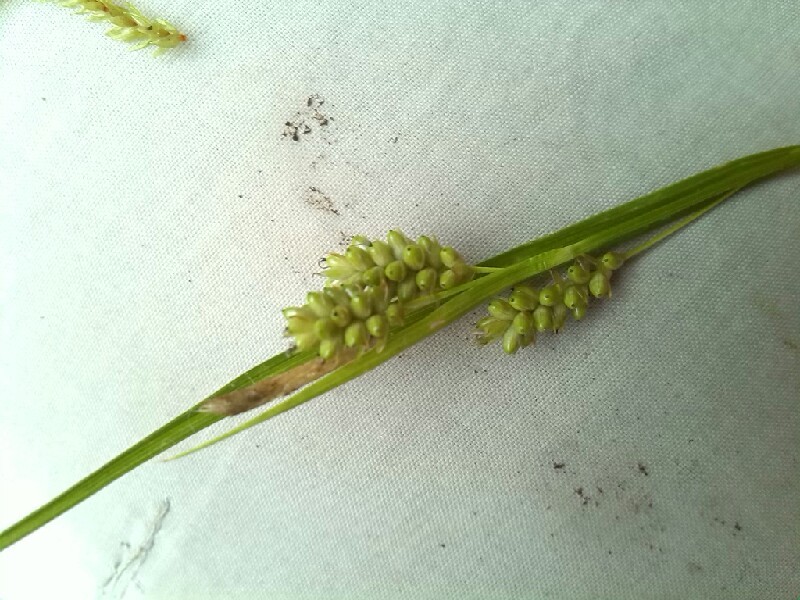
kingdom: Plantae
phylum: Tracheophyta
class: Liliopsida
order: Poales
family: Cyperaceae
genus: Carex
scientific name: Carex pallescens
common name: Pale sedge
